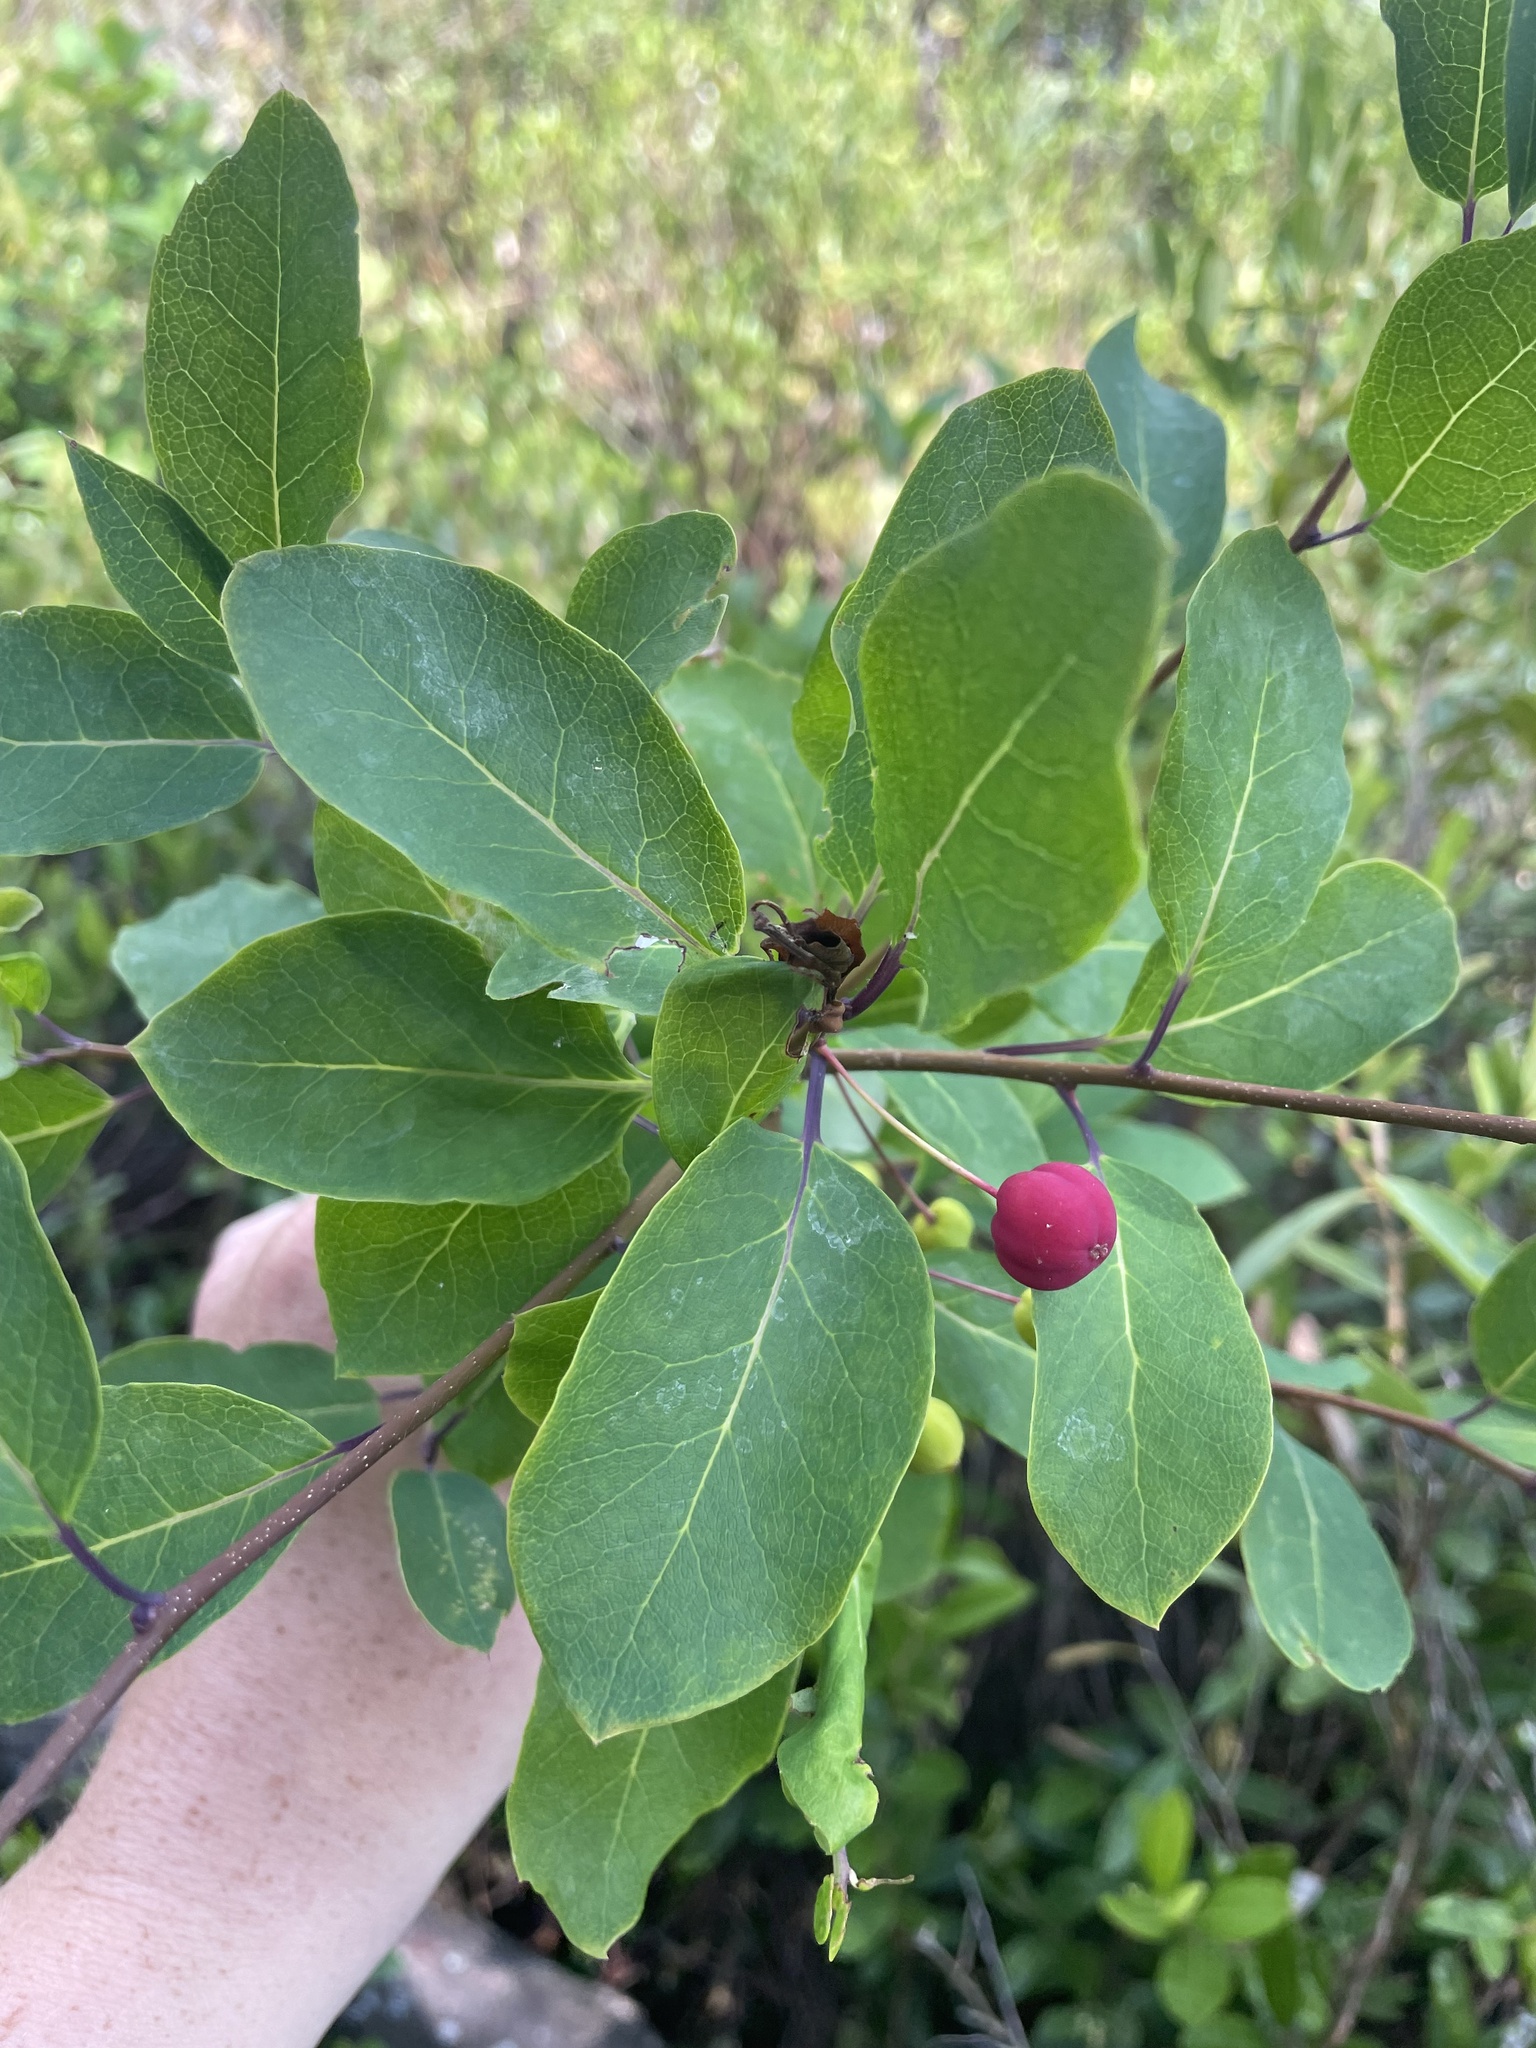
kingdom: Plantae
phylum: Tracheophyta
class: Magnoliopsida
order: Aquifoliales
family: Aquifoliaceae
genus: Ilex
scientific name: Ilex mucronata
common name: Catberry
